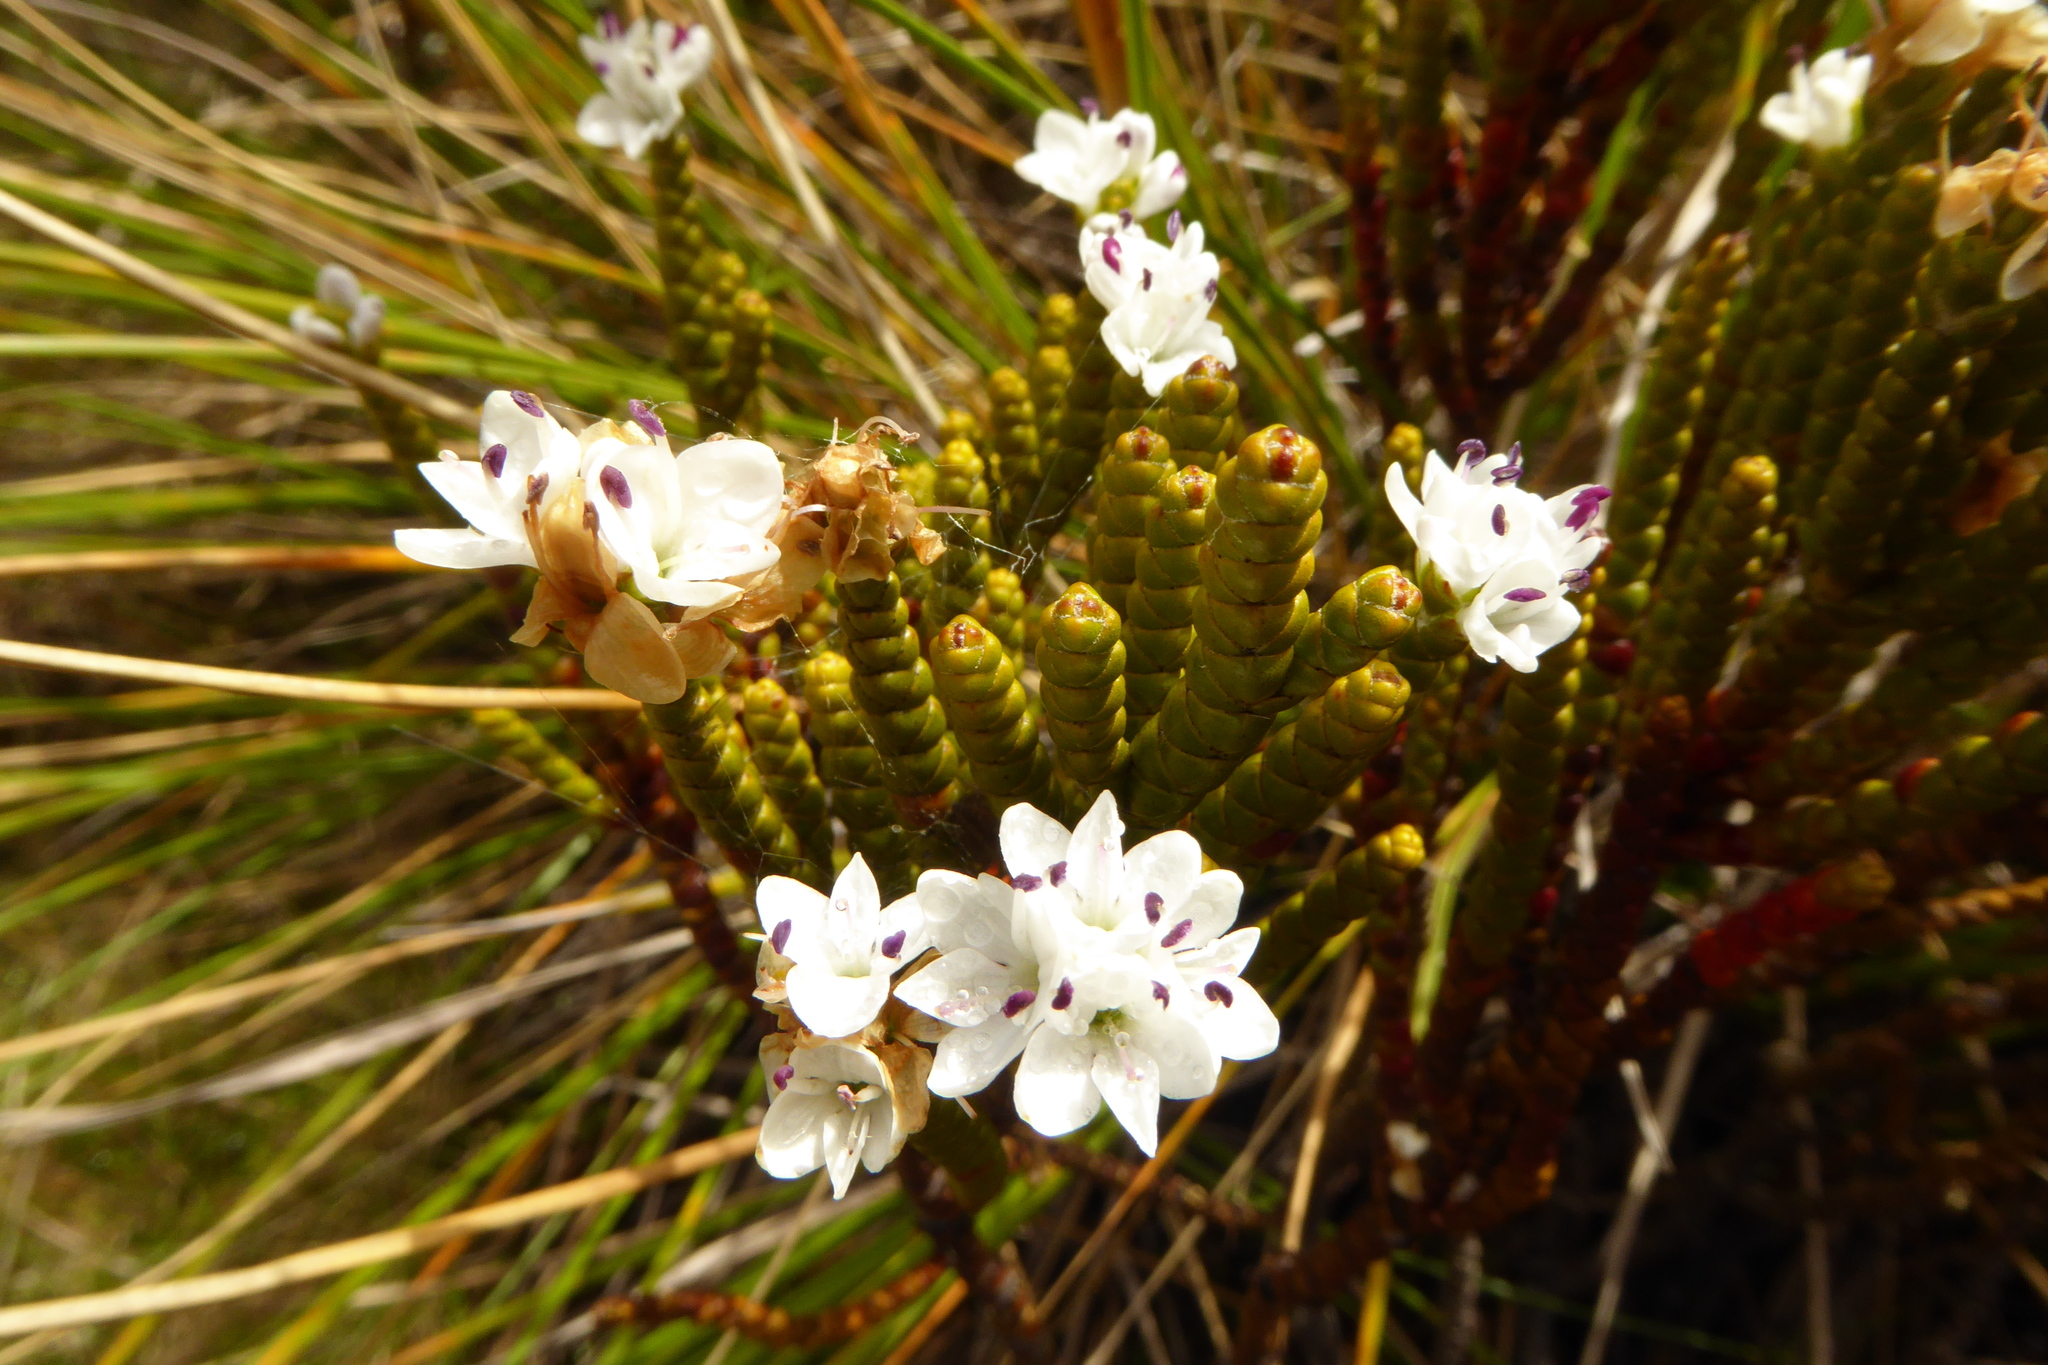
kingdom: Plantae
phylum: Tracheophyta
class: Magnoliopsida
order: Lamiales
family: Plantaginaceae
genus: Veronica
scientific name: Veronica hectorii
